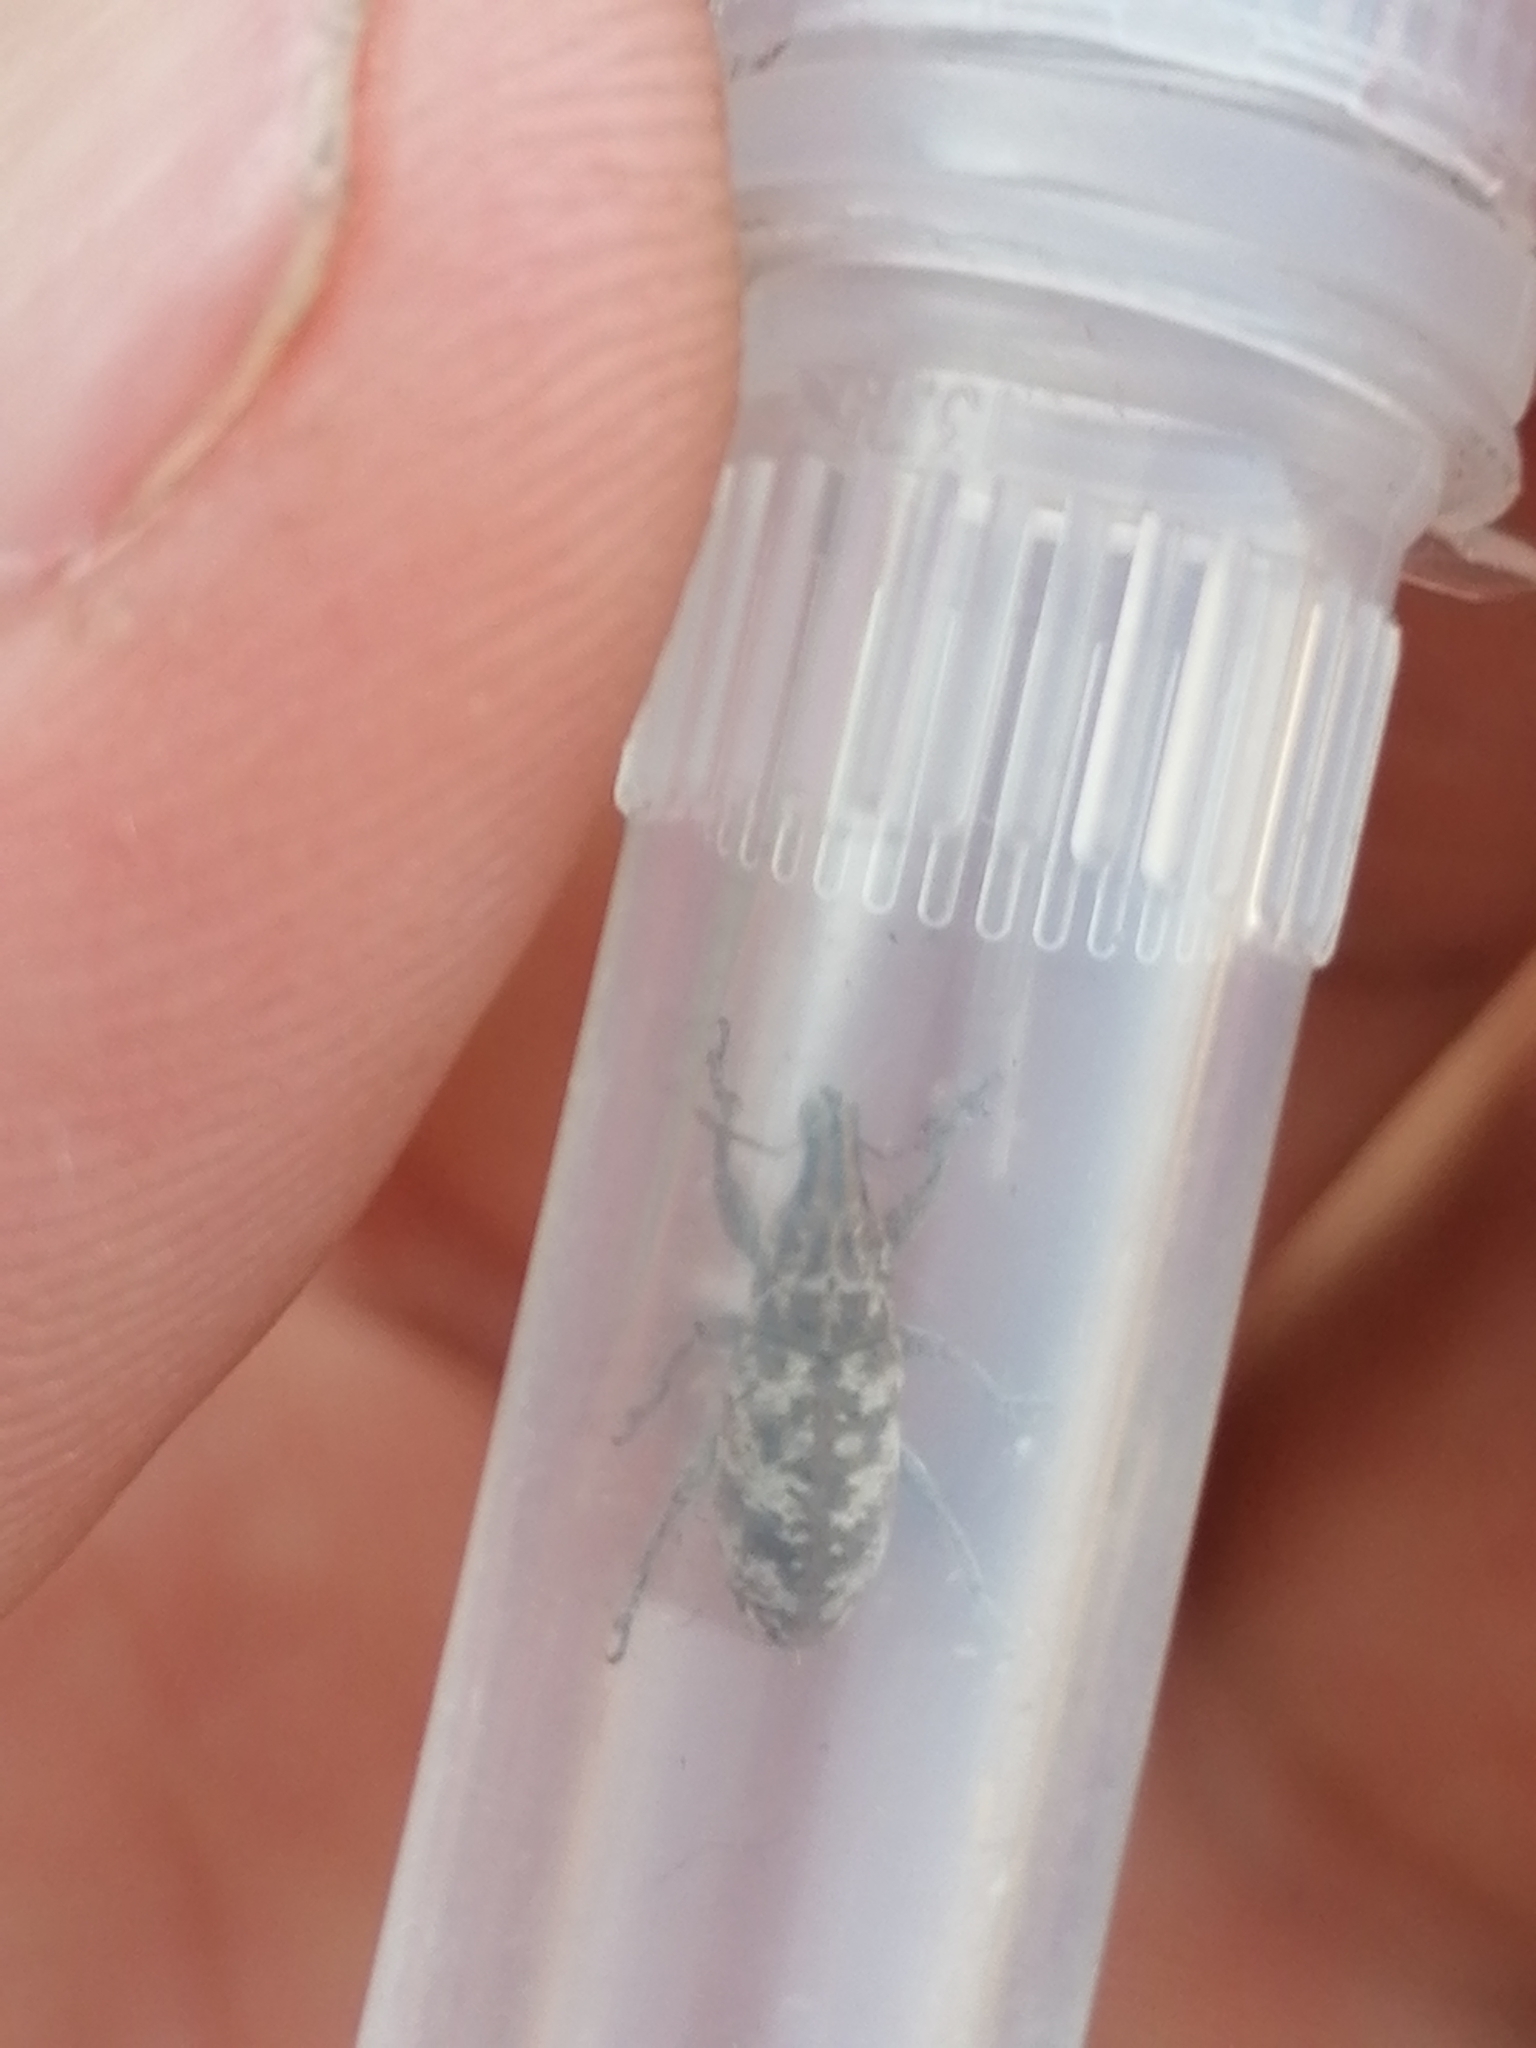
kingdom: Animalia
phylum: Arthropoda
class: Insecta
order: Coleoptera
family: Curculionidae
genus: Cyphocleonus
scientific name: Cyphocleonus dealbatus
